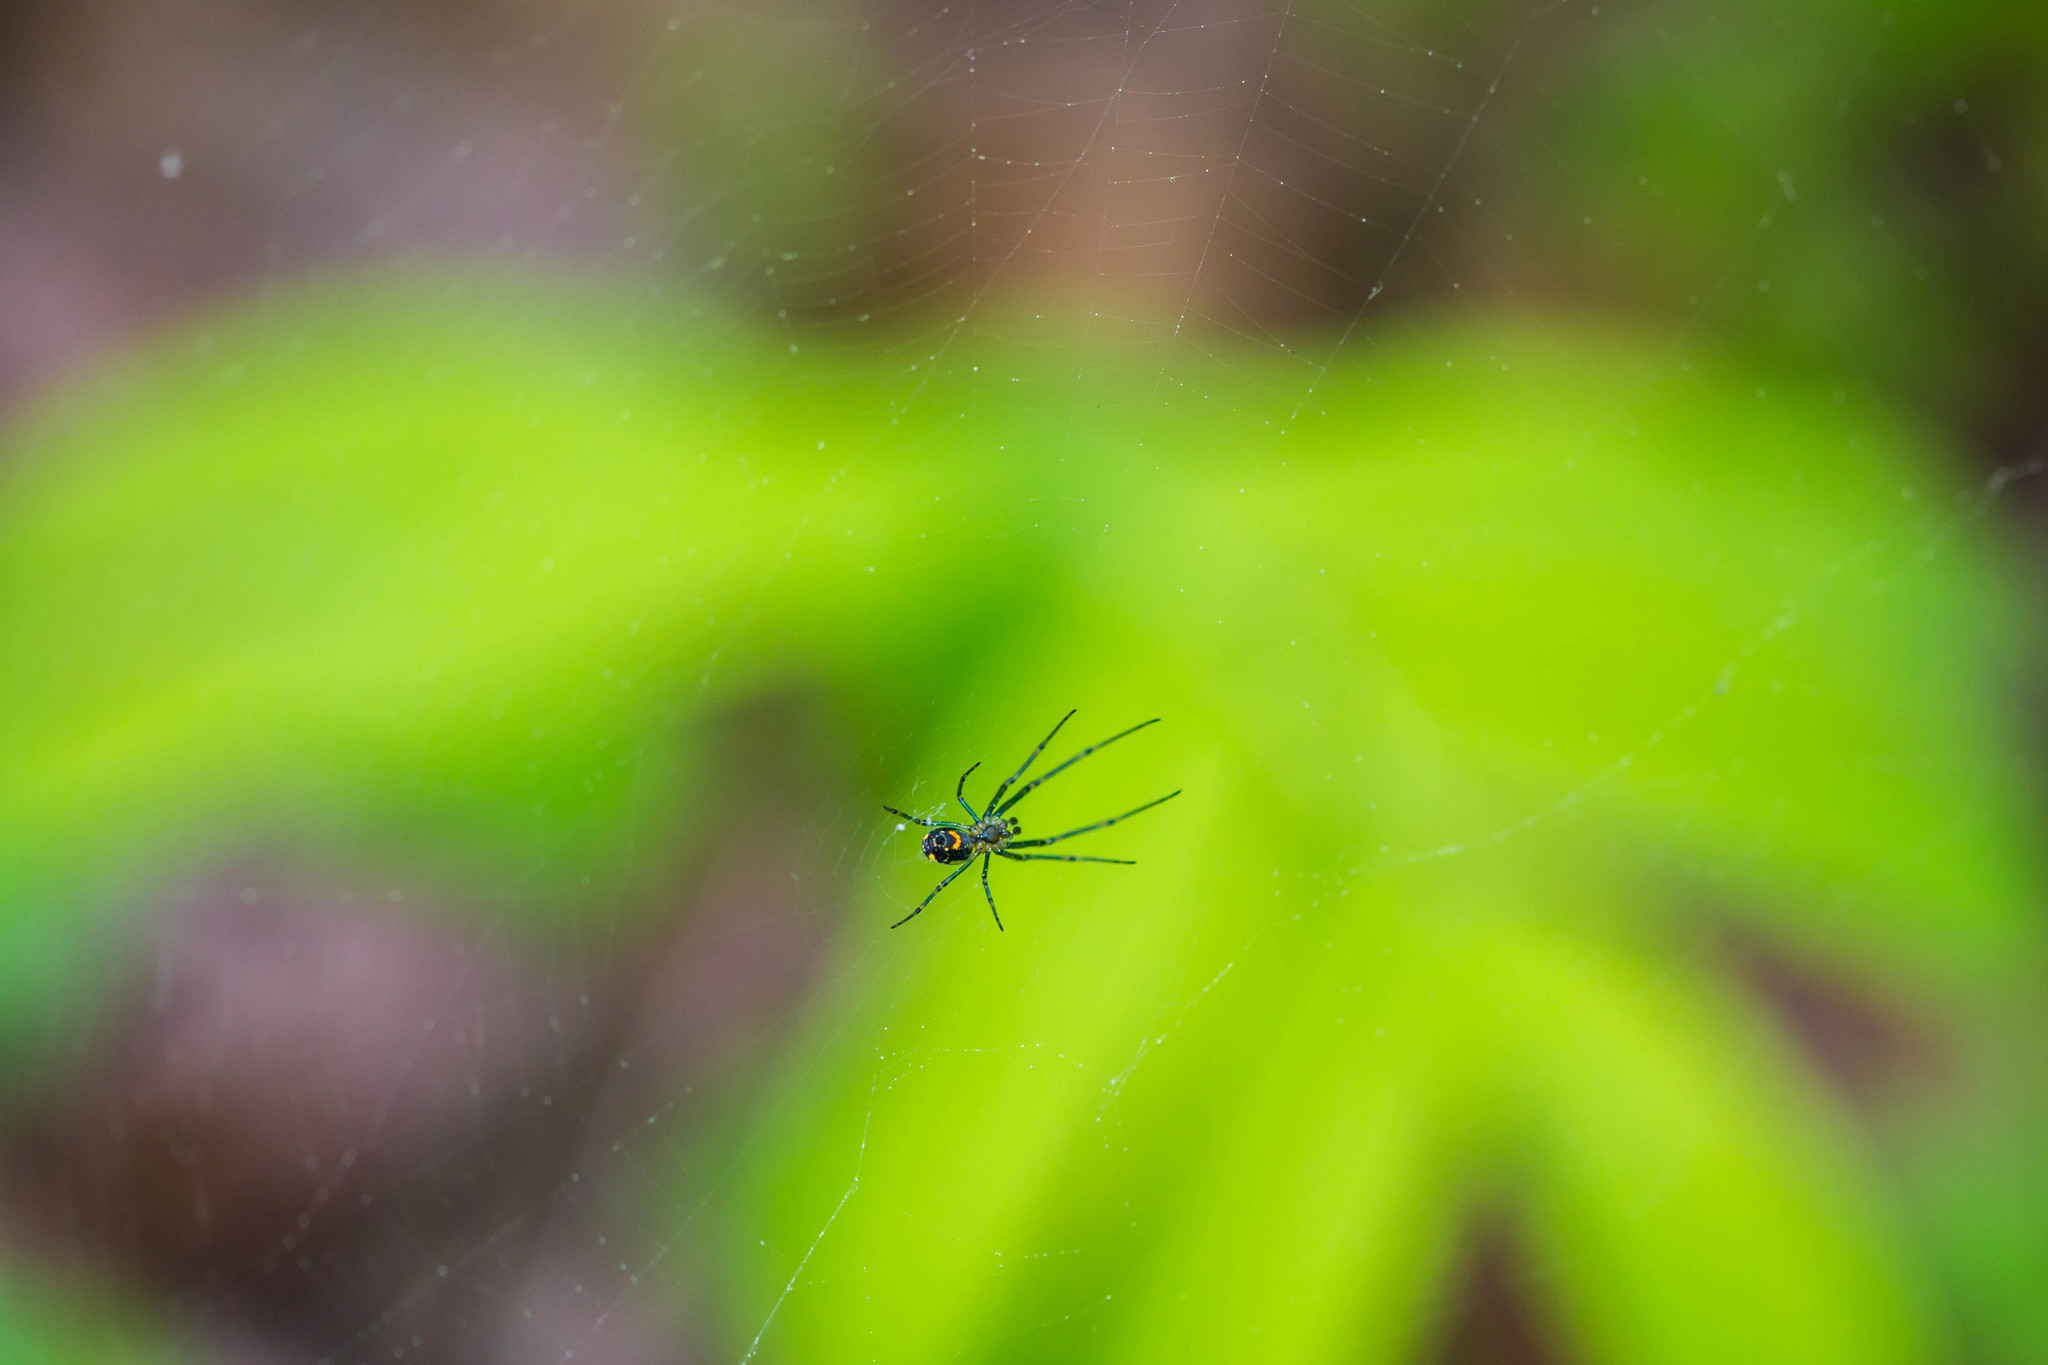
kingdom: Animalia
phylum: Arthropoda
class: Arachnida
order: Araneae
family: Tetragnathidae
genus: Leucauge
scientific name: Leucauge venusta
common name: Longjawed orb weavers
